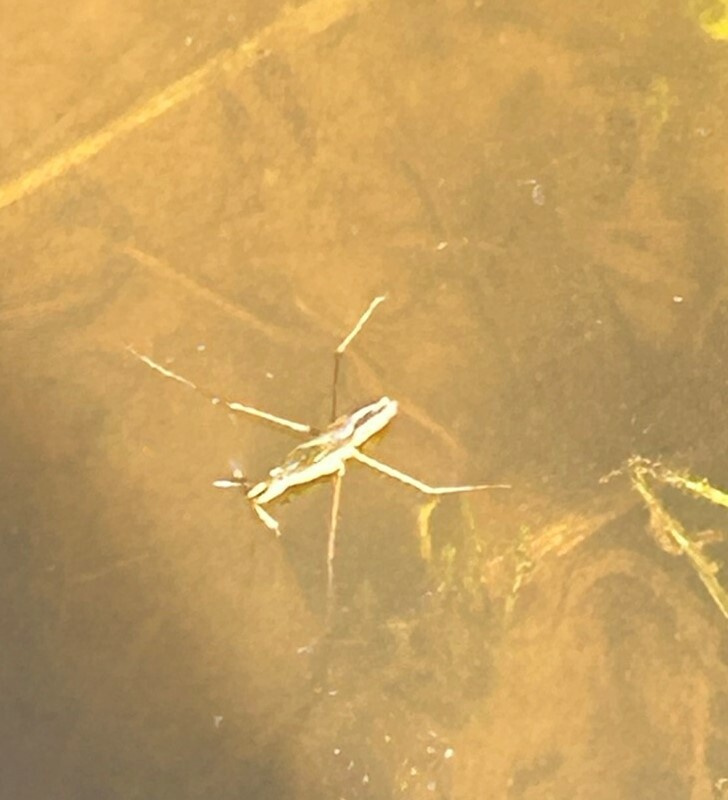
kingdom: Animalia
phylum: Arthropoda
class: Insecta
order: Hemiptera
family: Gerridae
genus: Gerris
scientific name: Gerris
